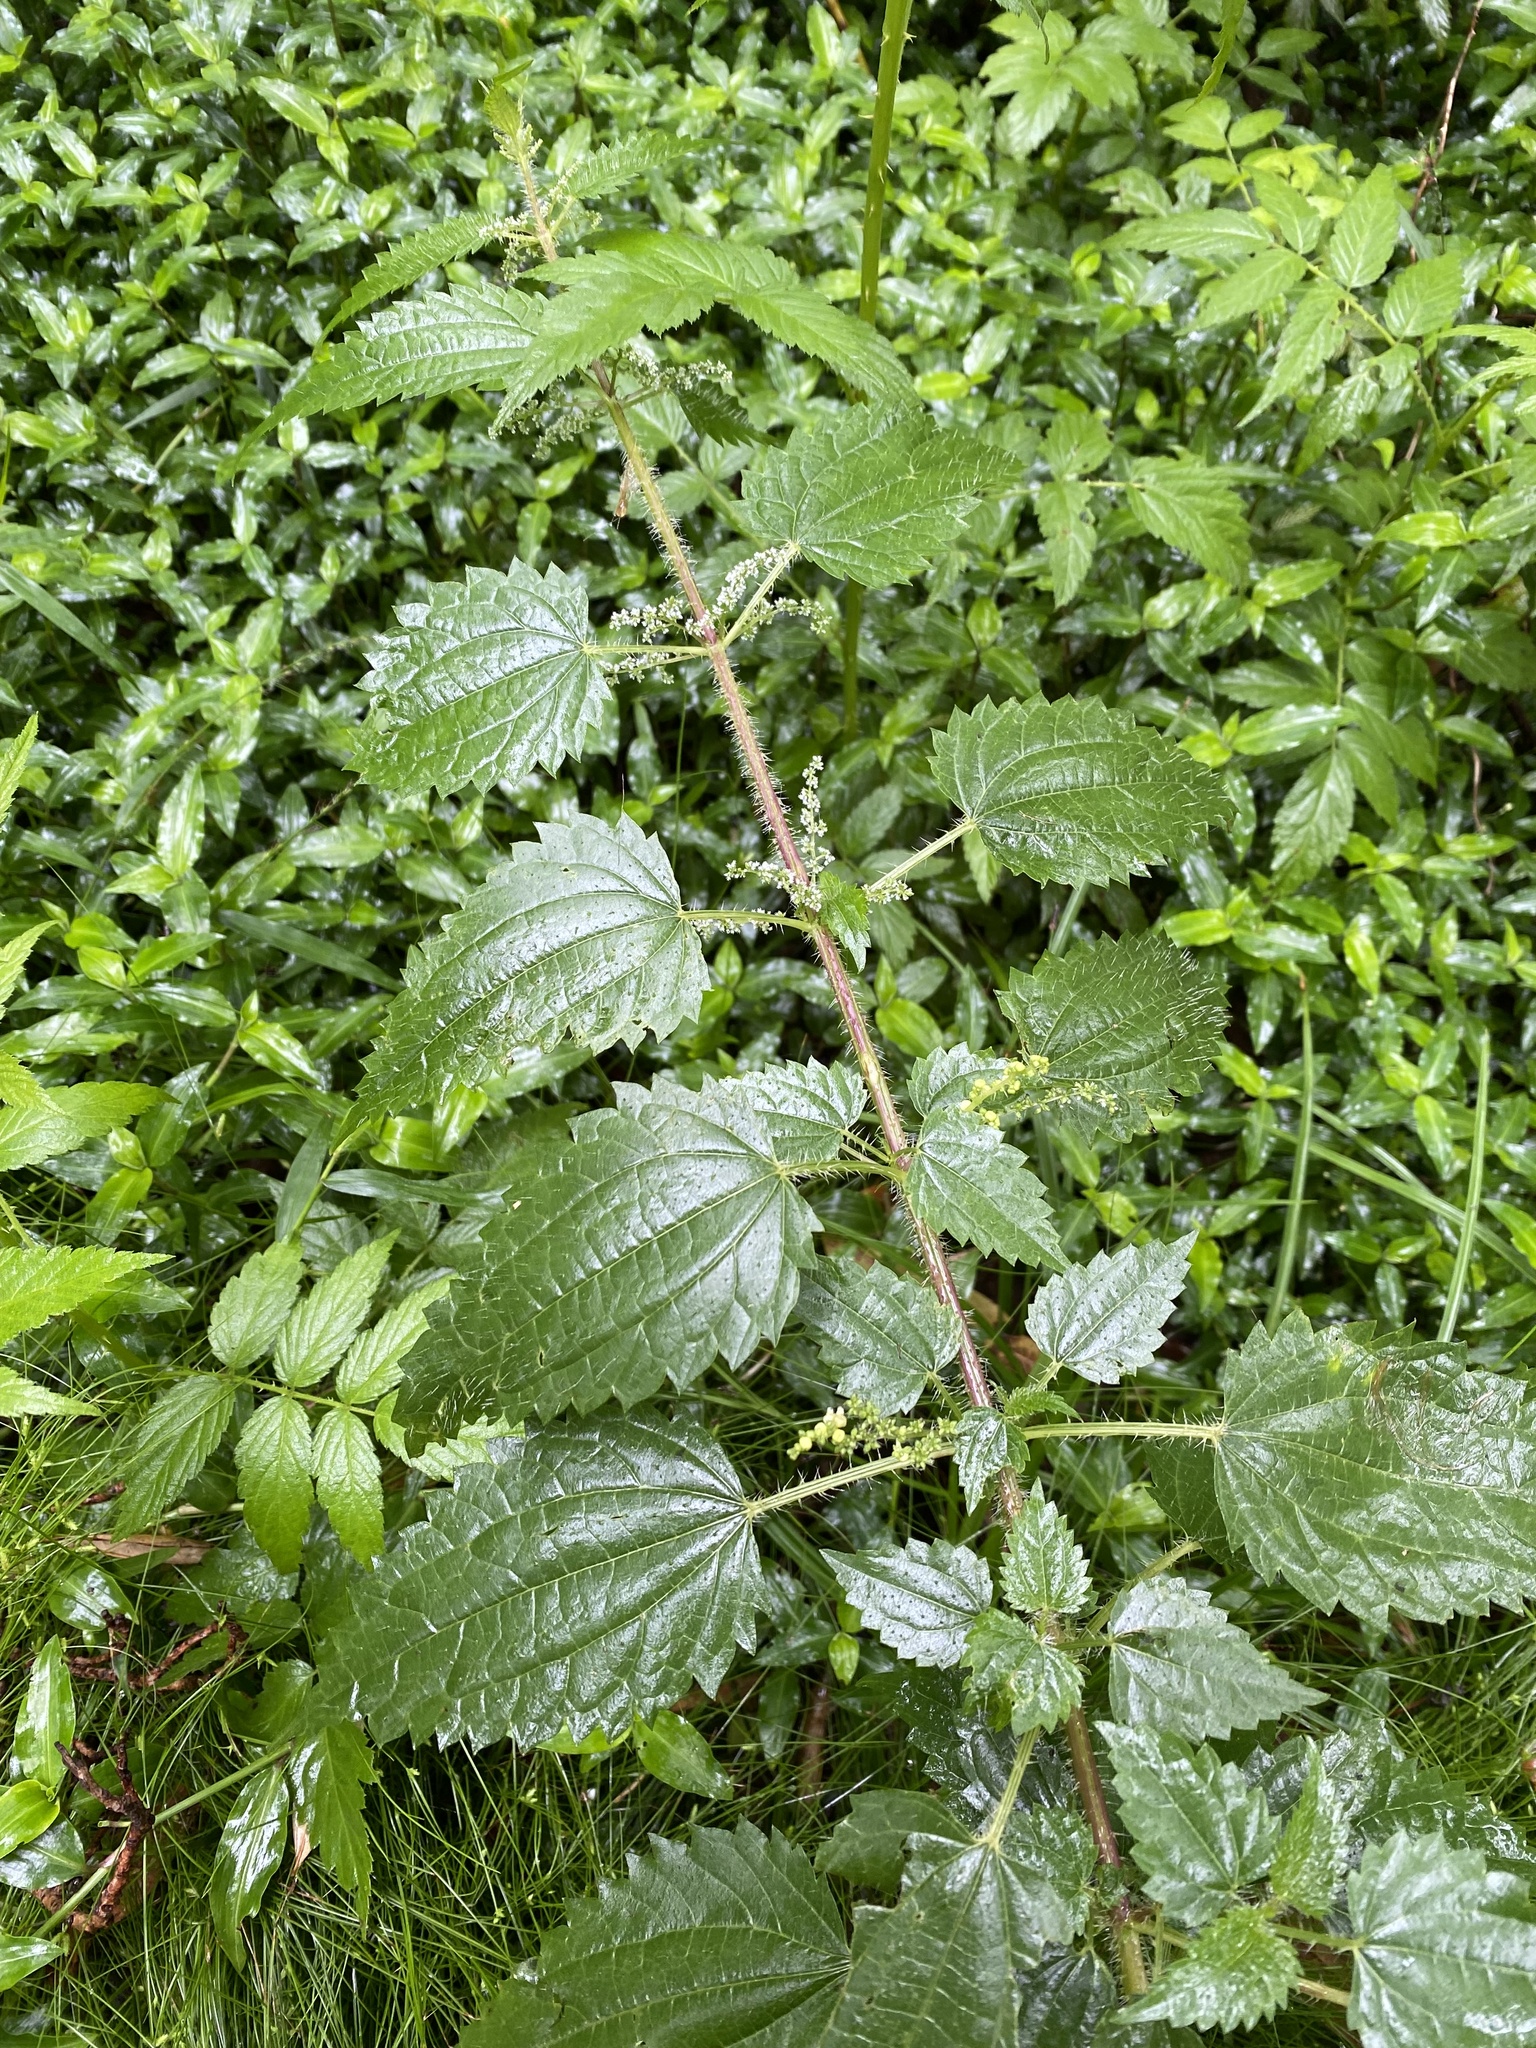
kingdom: Plantae
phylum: Tracheophyta
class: Magnoliopsida
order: Rosales
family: Urticaceae
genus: Urtica
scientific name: Urtica incisa
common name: Scrub nettle
